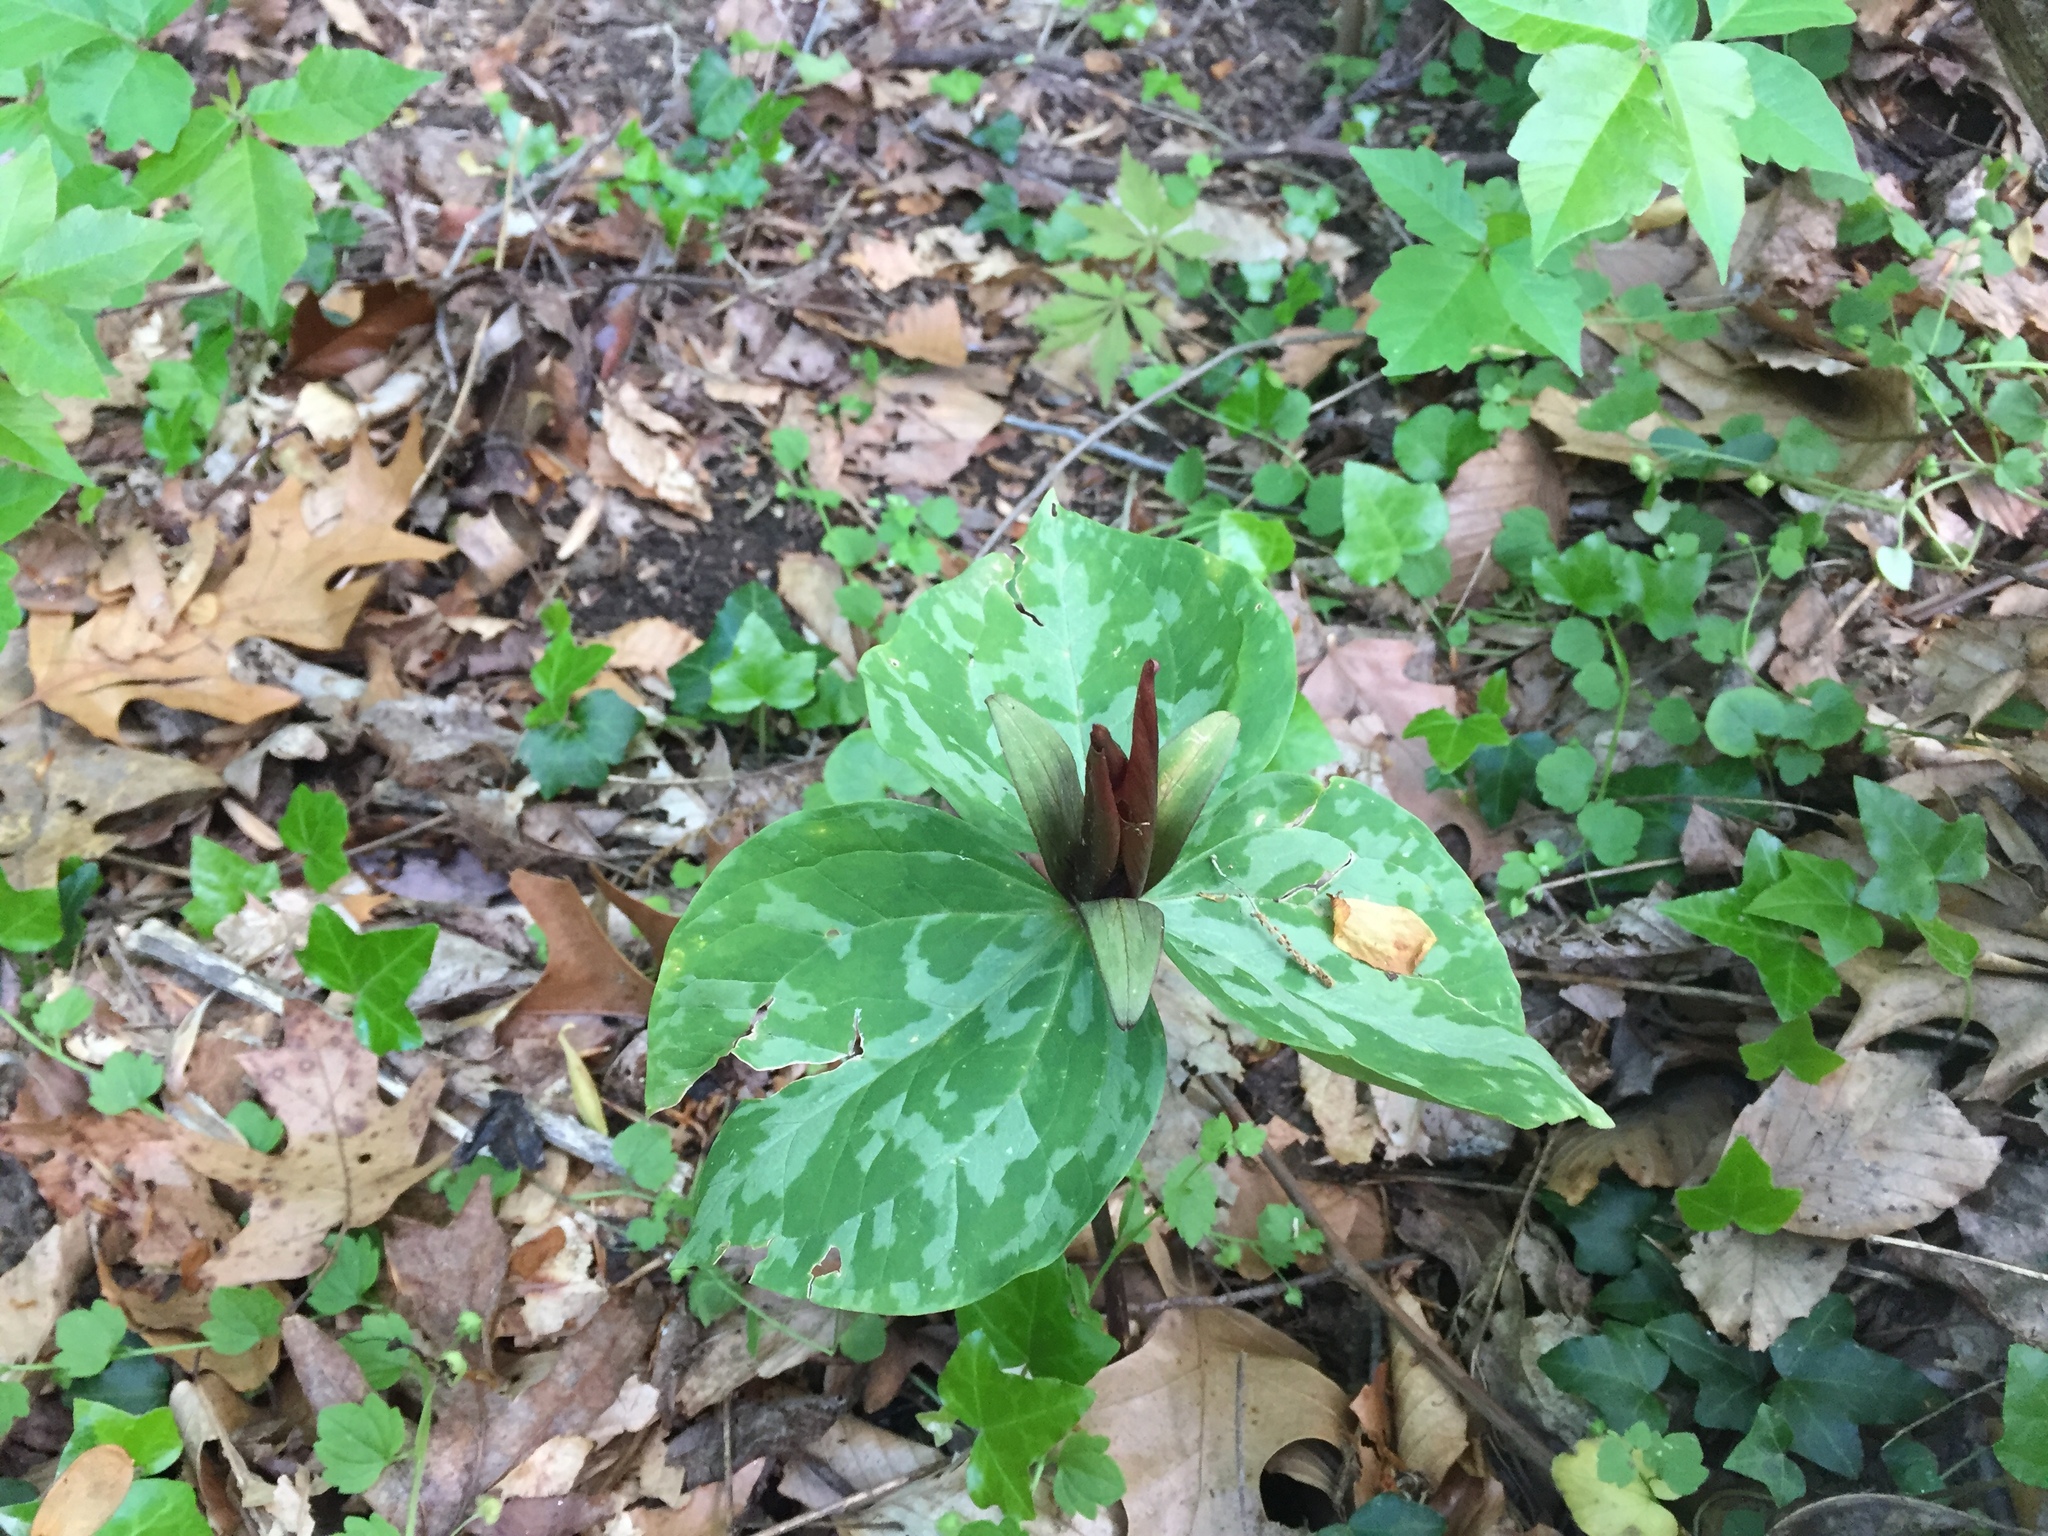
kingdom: Plantae
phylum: Tracheophyta
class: Liliopsida
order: Liliales
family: Melanthiaceae
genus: Trillium
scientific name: Trillium cuneatum
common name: Cuneate trillium
